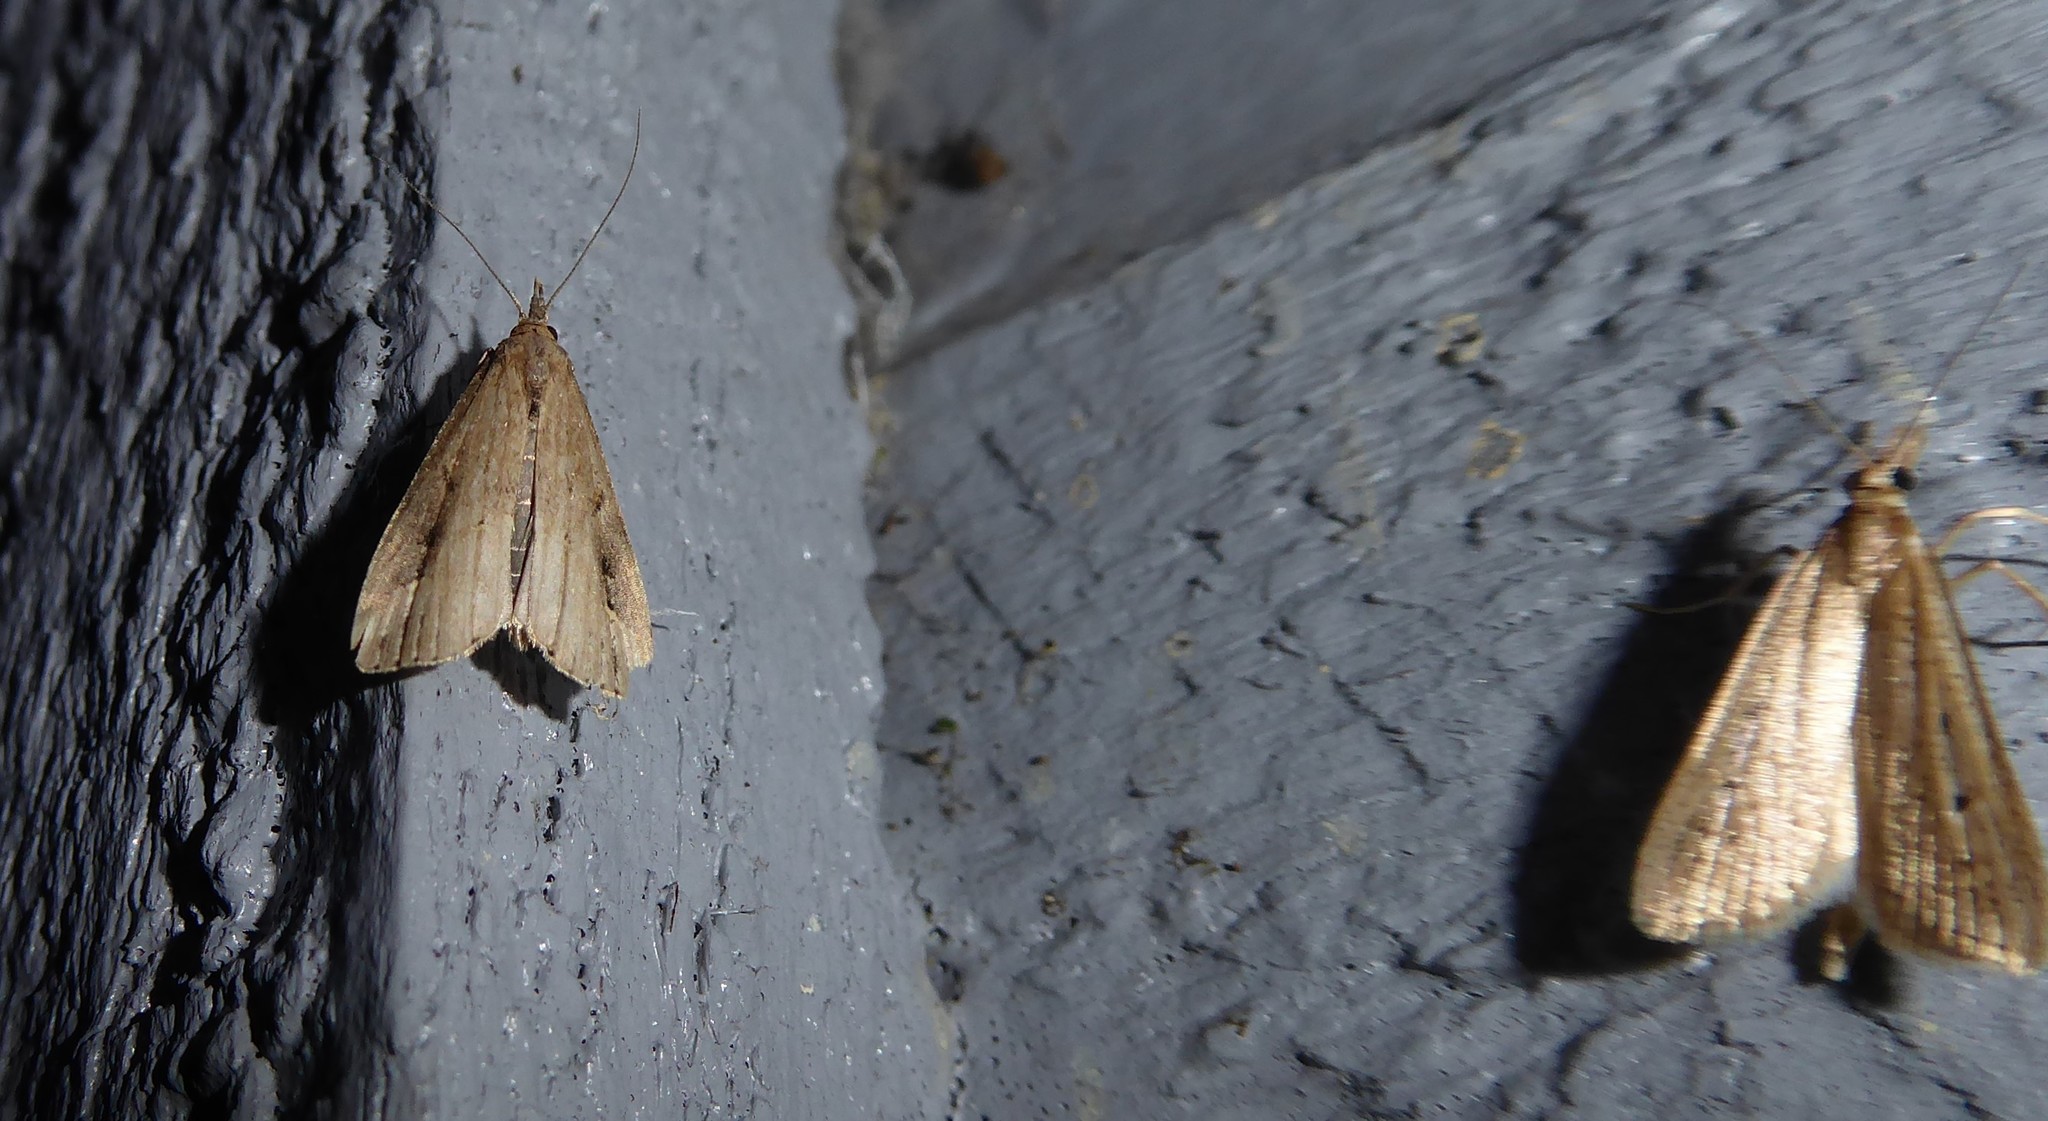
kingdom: Animalia
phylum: Arthropoda
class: Insecta
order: Lepidoptera
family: Erebidae
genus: Schrankia
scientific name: Schrankia costaestrigalis
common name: Pinion-streaked snout
